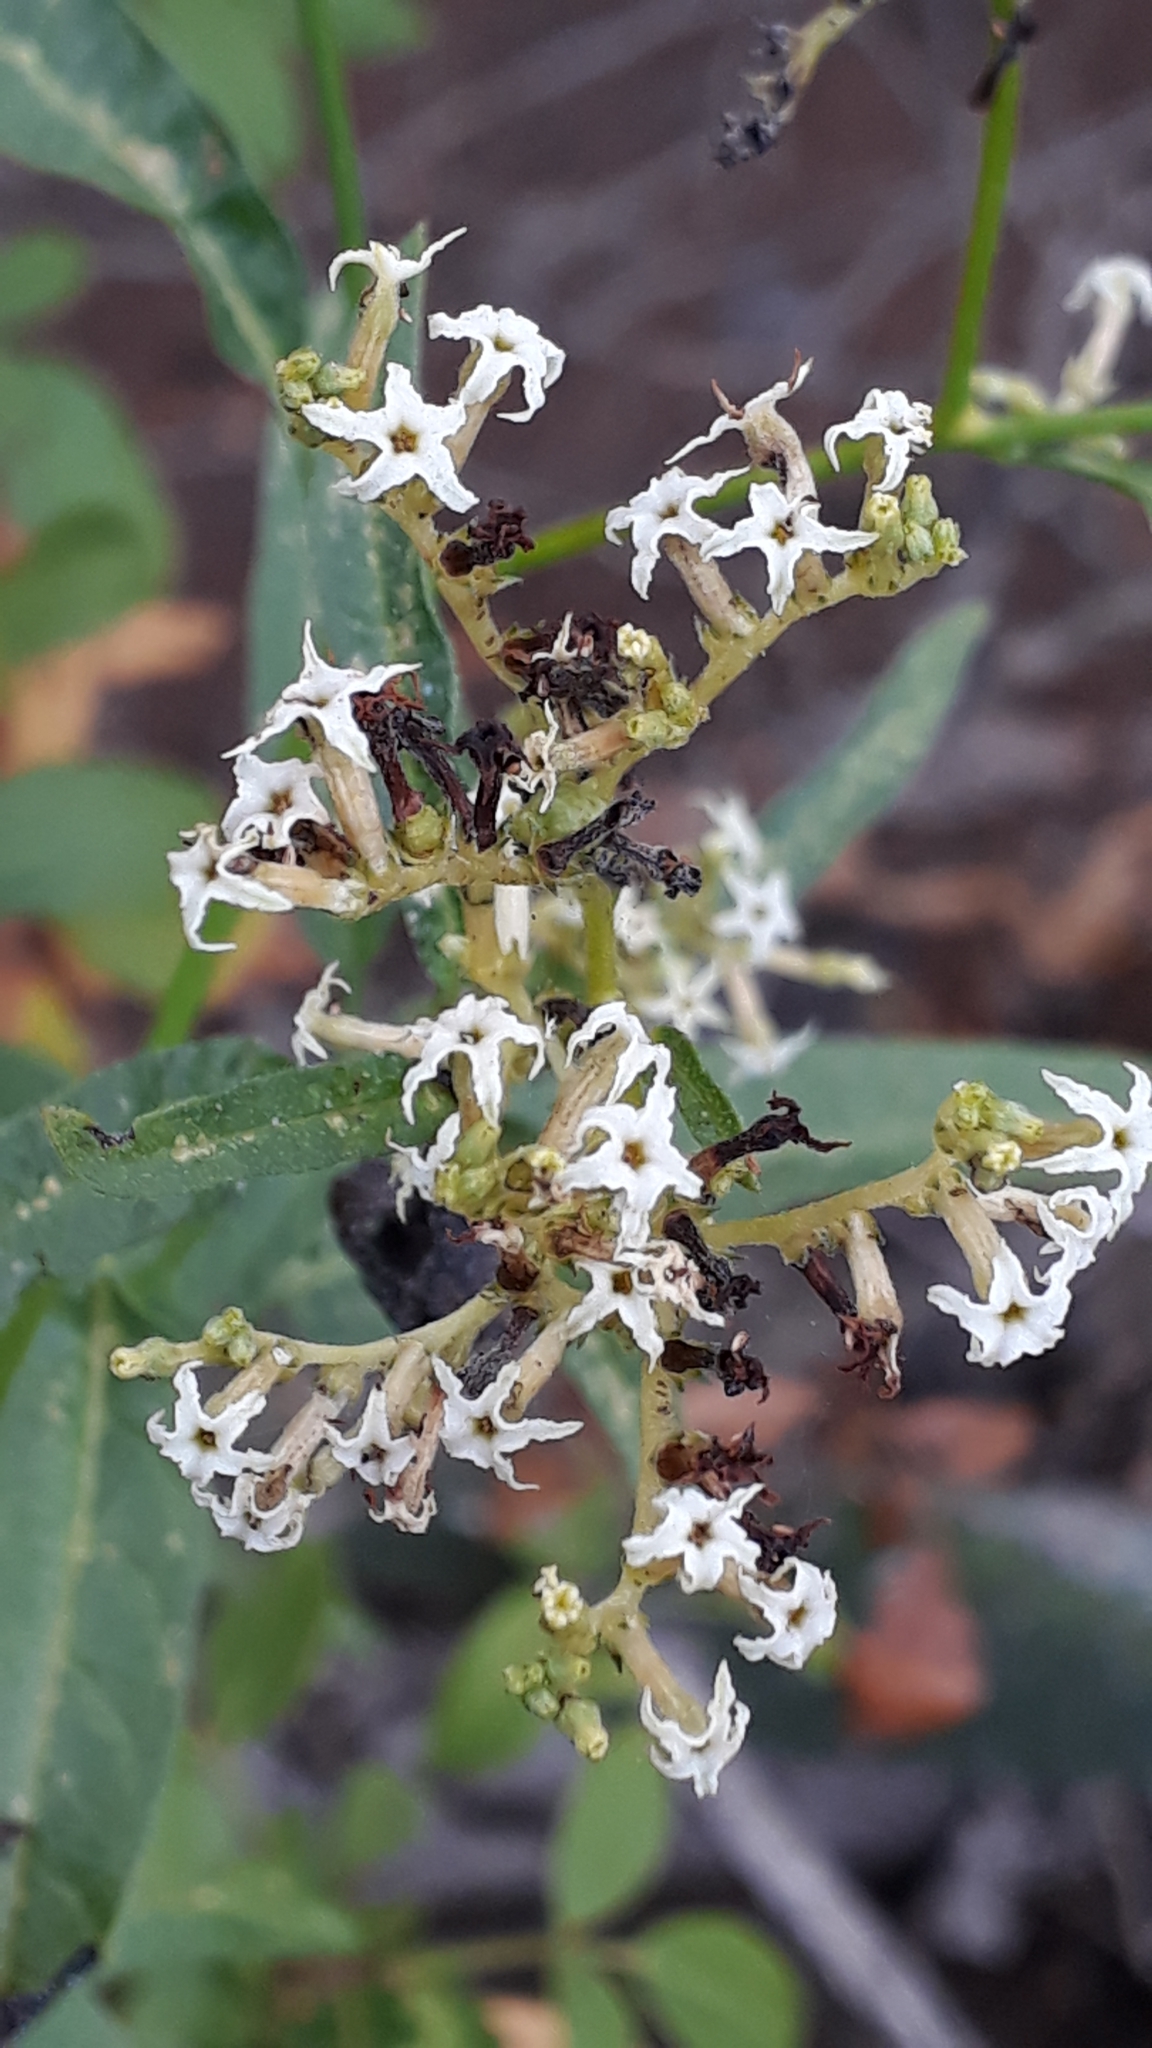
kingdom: Plantae
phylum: Tracheophyta
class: Magnoliopsida
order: Boraginales
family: Heliotropiaceae
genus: Heliotropium
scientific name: Heliotropium messerschmidioides
